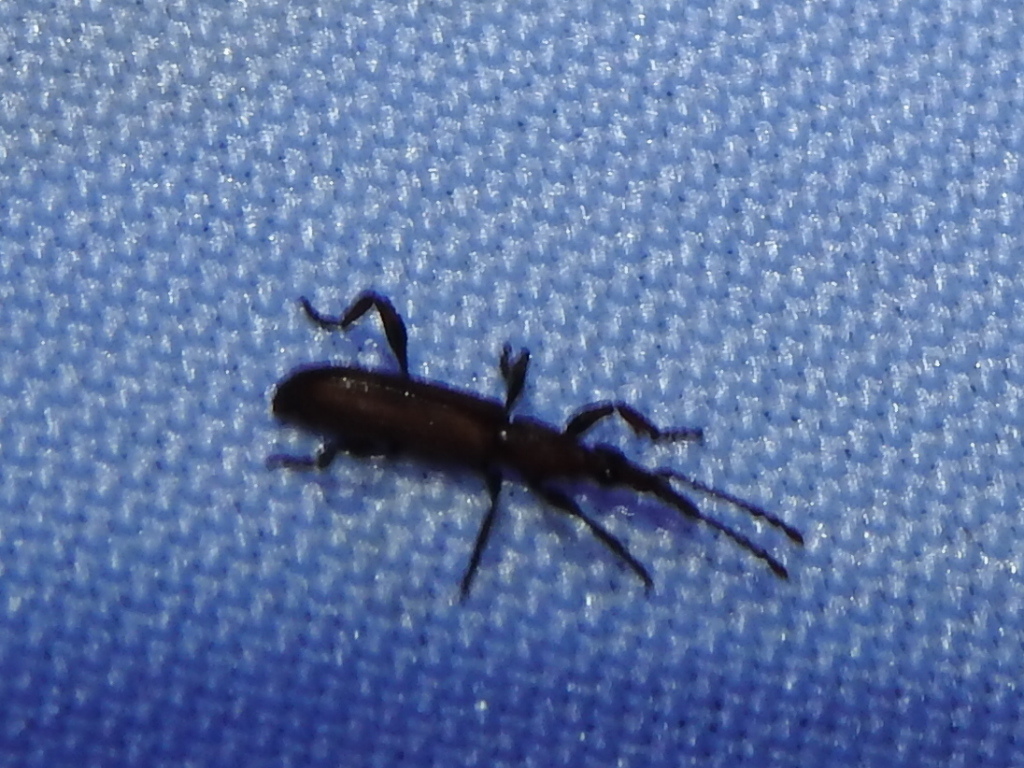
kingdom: Animalia
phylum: Arthropoda
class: Insecta
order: Coleoptera
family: Brentidae
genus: Stereobates
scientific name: Stereobates pedator
